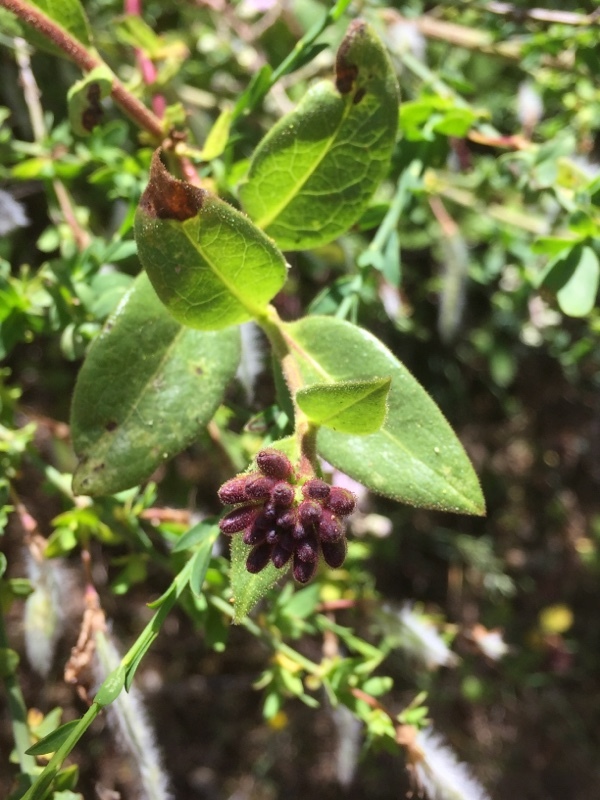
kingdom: Plantae
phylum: Tracheophyta
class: Magnoliopsida
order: Dipsacales
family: Caprifoliaceae
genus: Lonicera
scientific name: Lonicera periclymenum
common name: European honeysuckle
